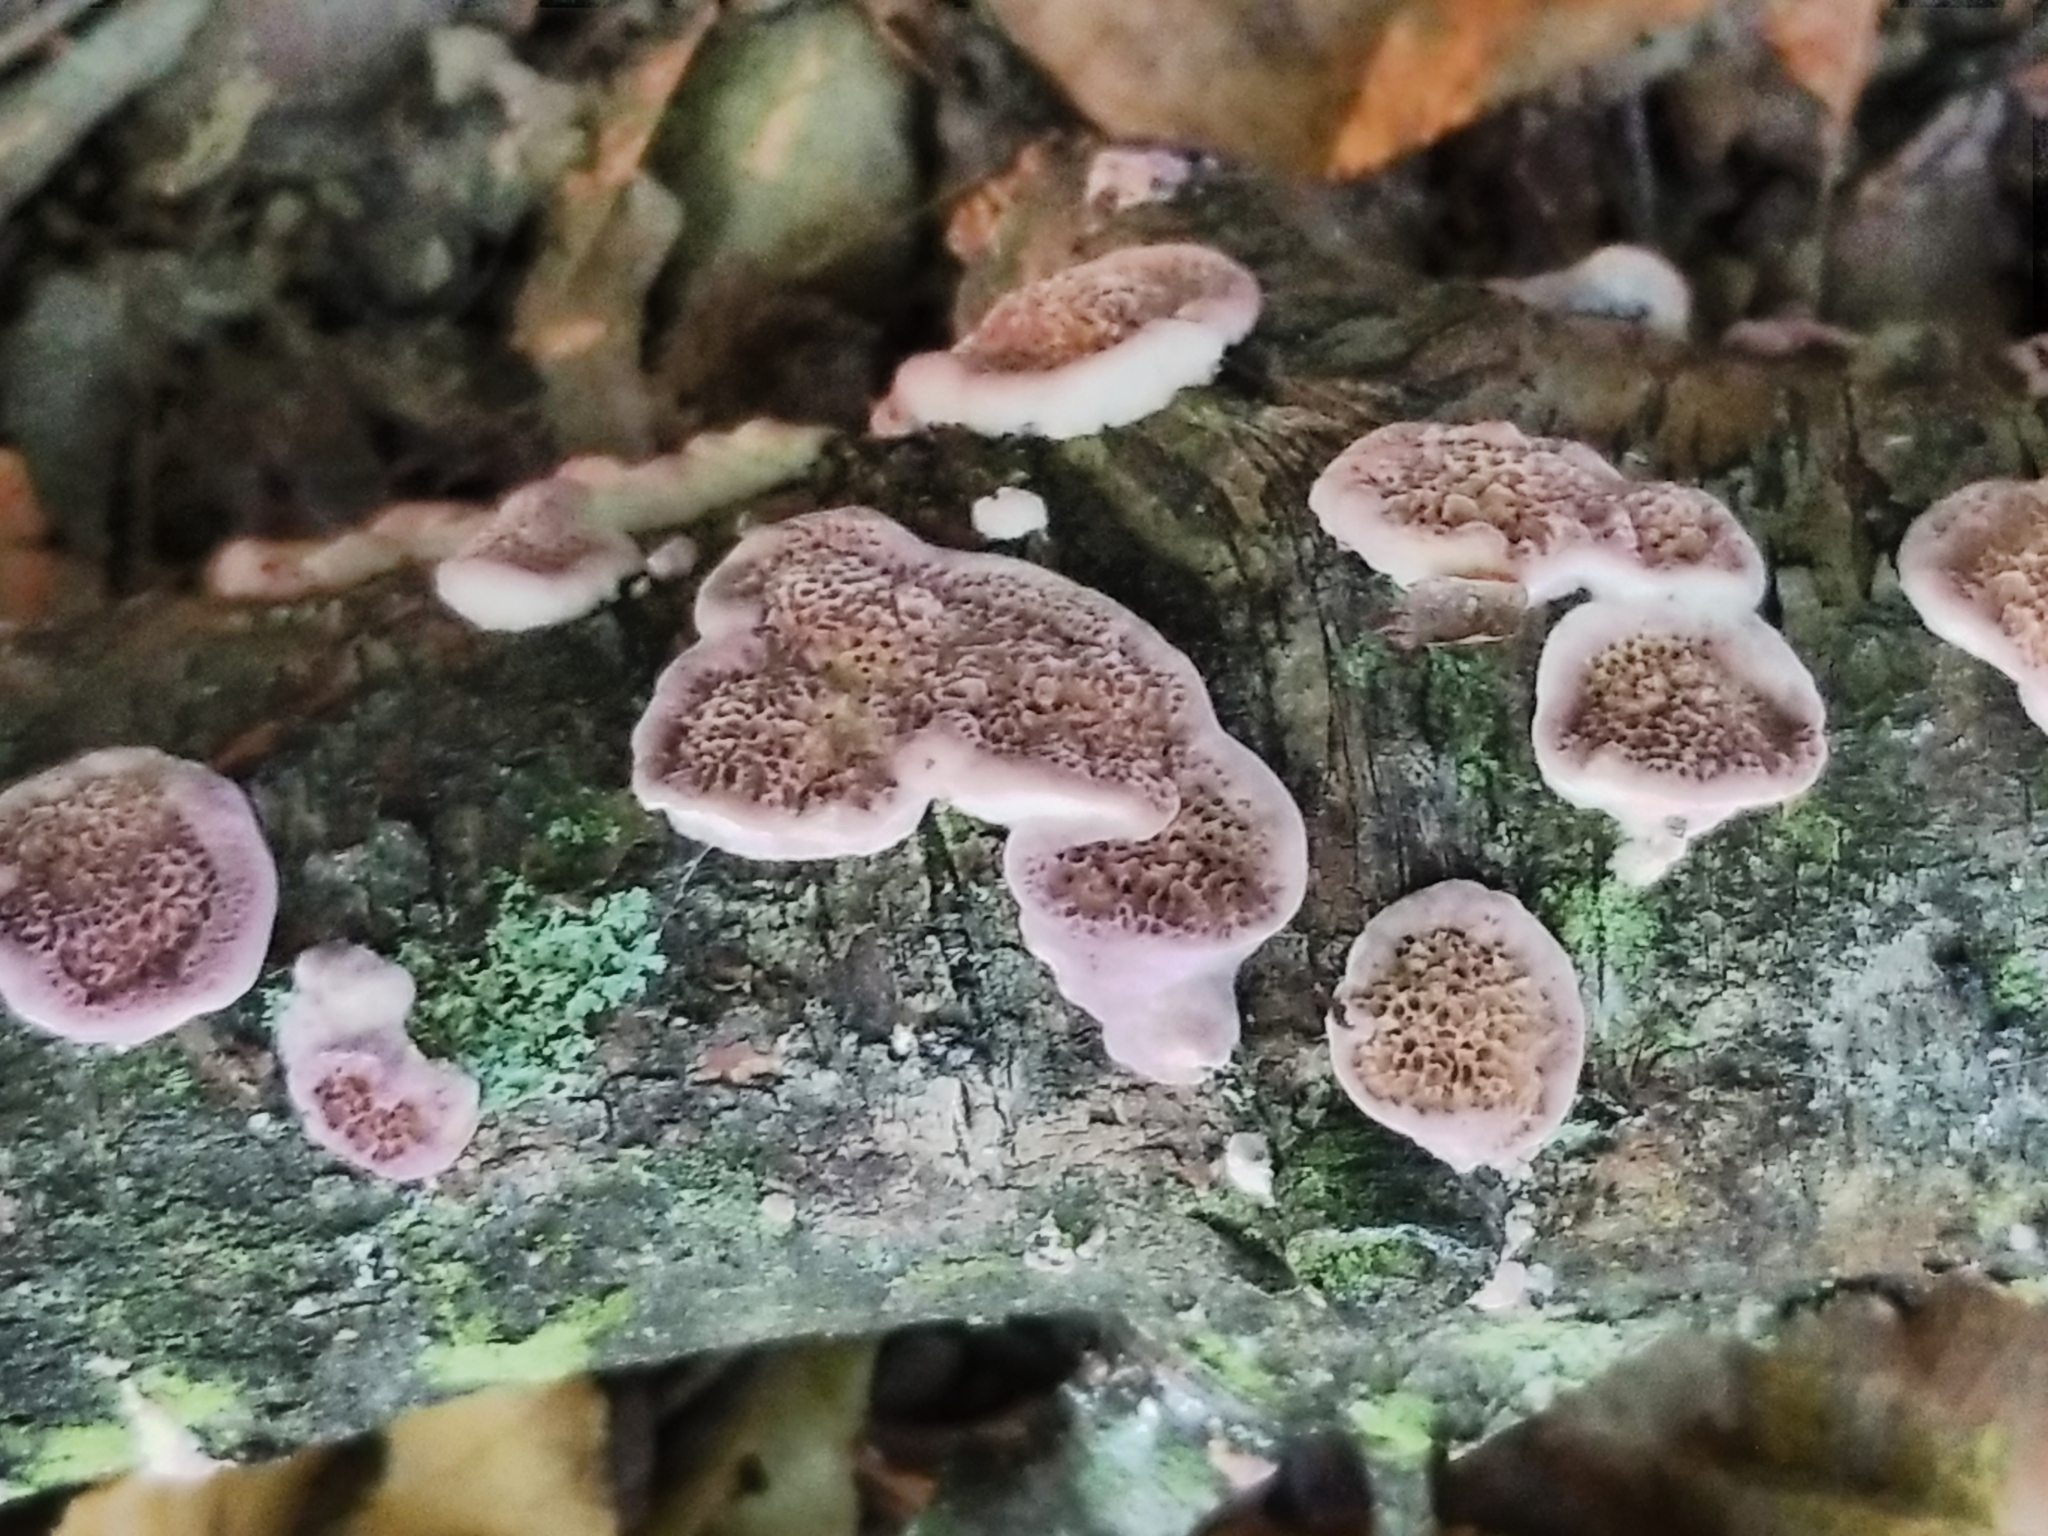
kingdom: Fungi
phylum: Basidiomycota
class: Agaricomycetes
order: Hymenochaetales
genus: Trichaptum
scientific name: Trichaptum biforme
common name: Violet-toothed polypore
